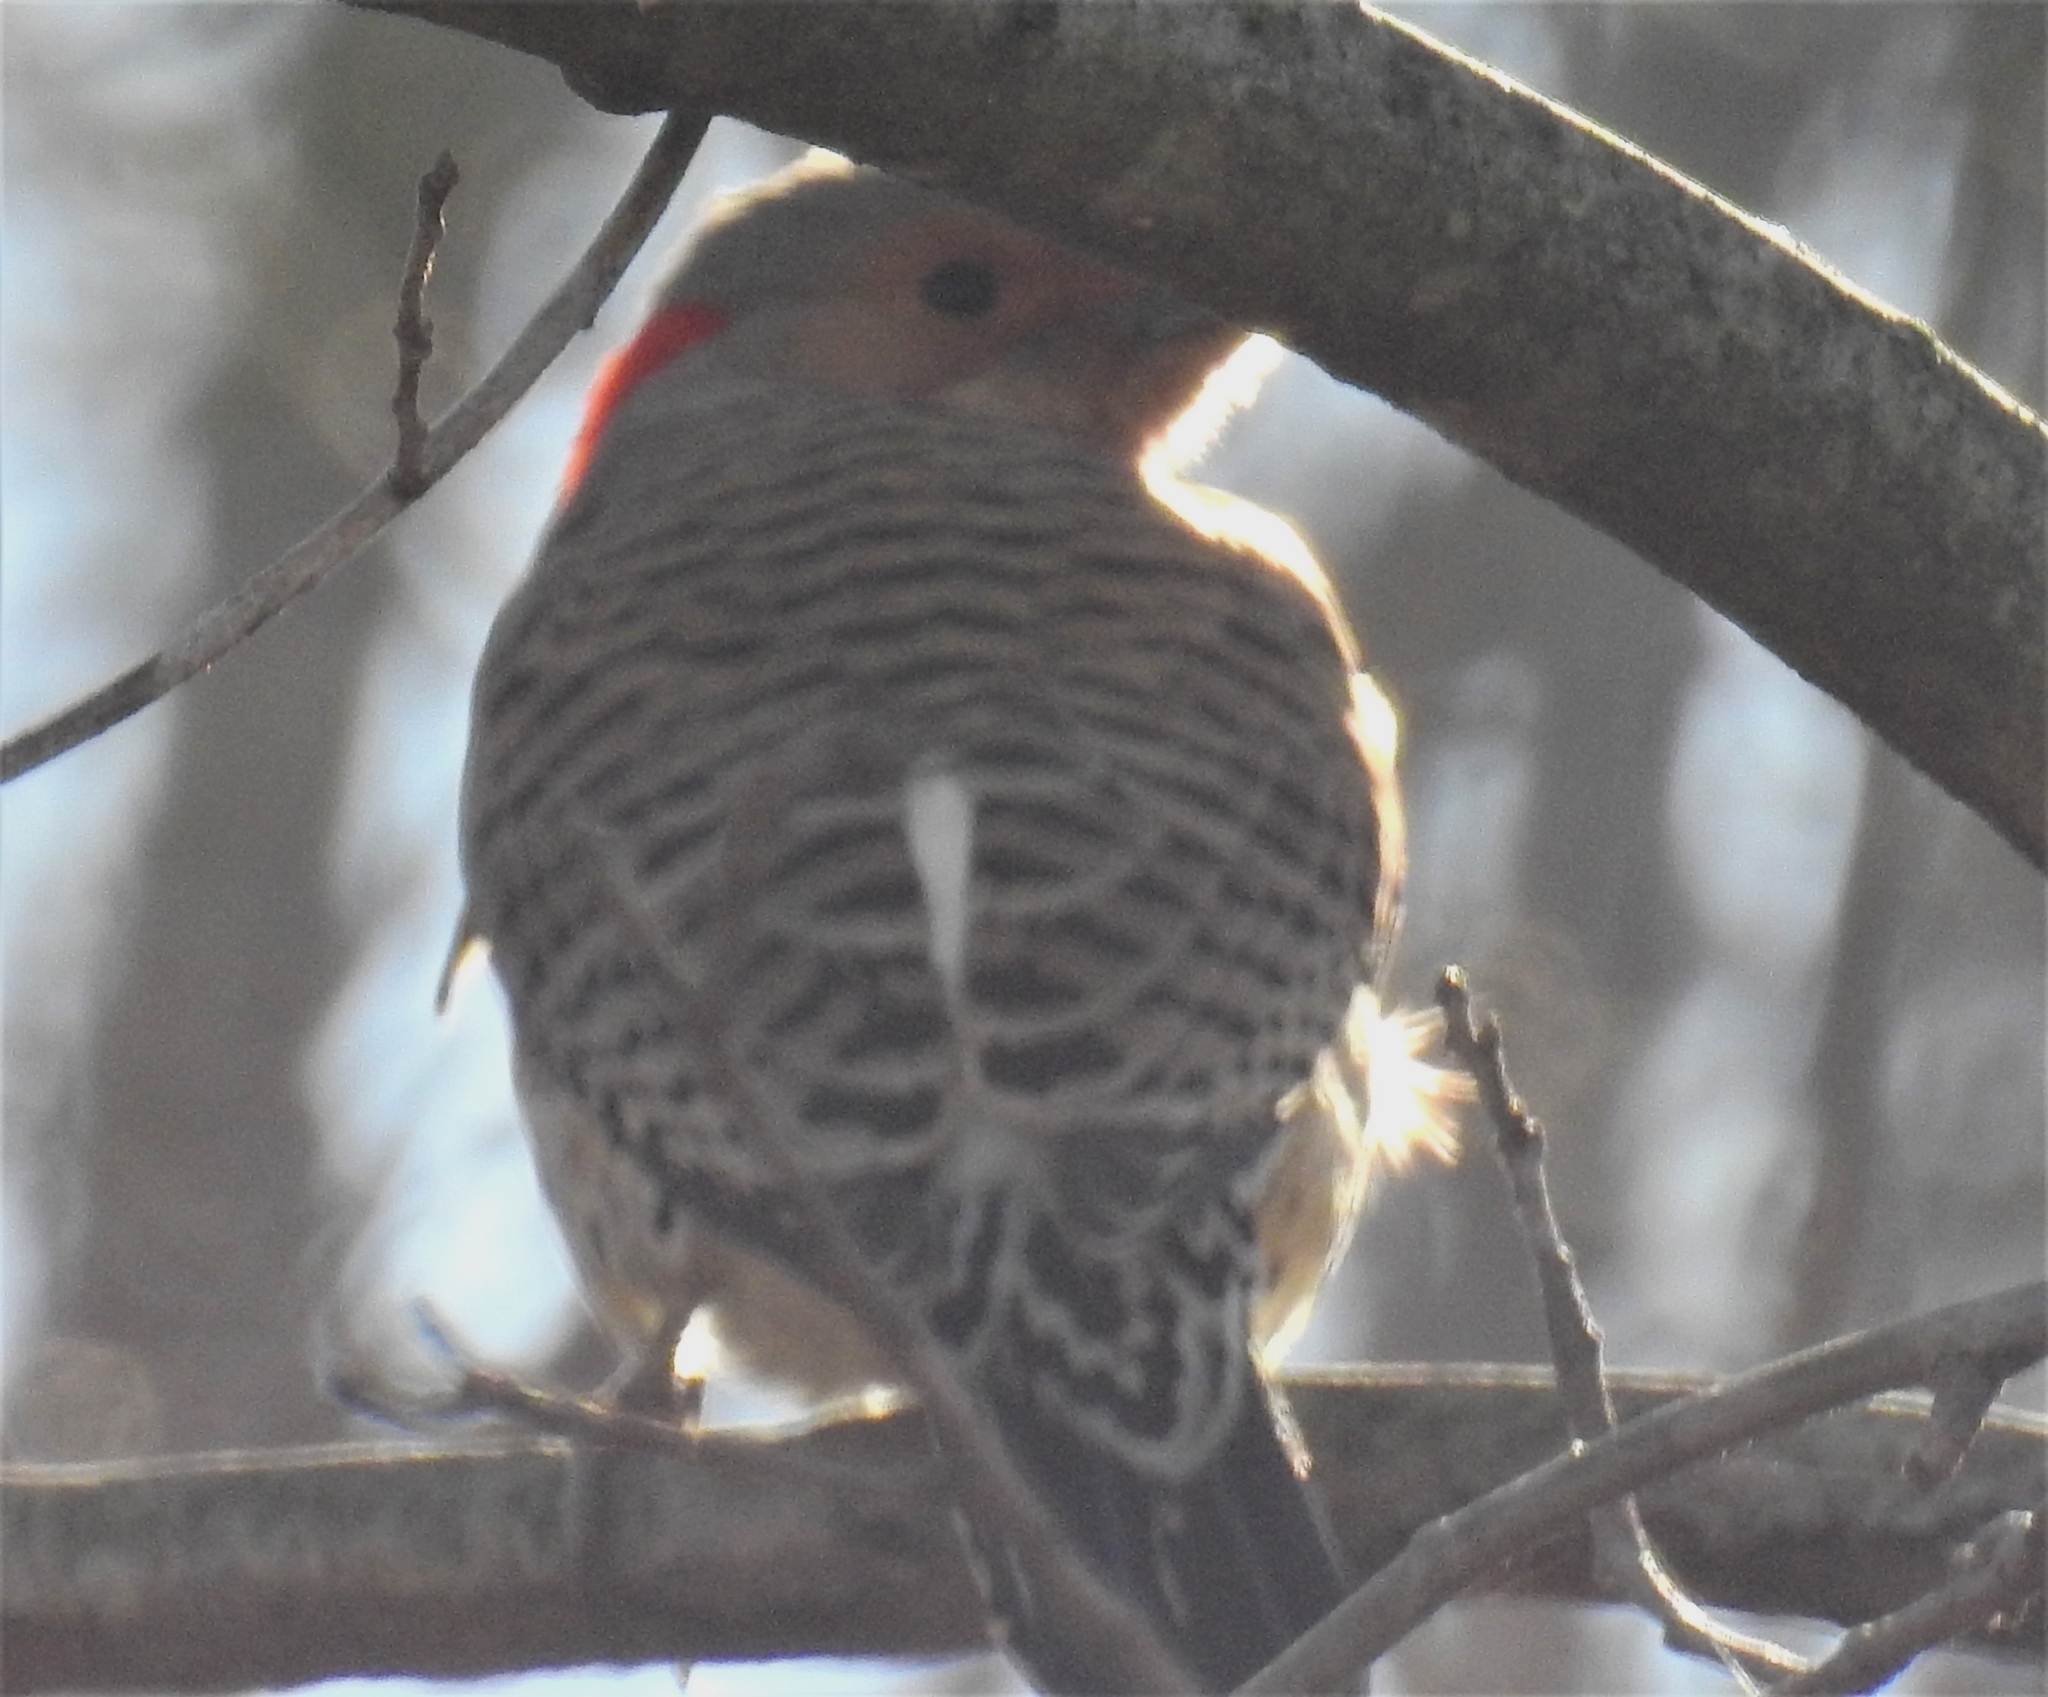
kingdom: Animalia
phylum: Chordata
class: Aves
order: Piciformes
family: Picidae
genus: Colaptes
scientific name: Colaptes auratus
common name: Northern flicker
